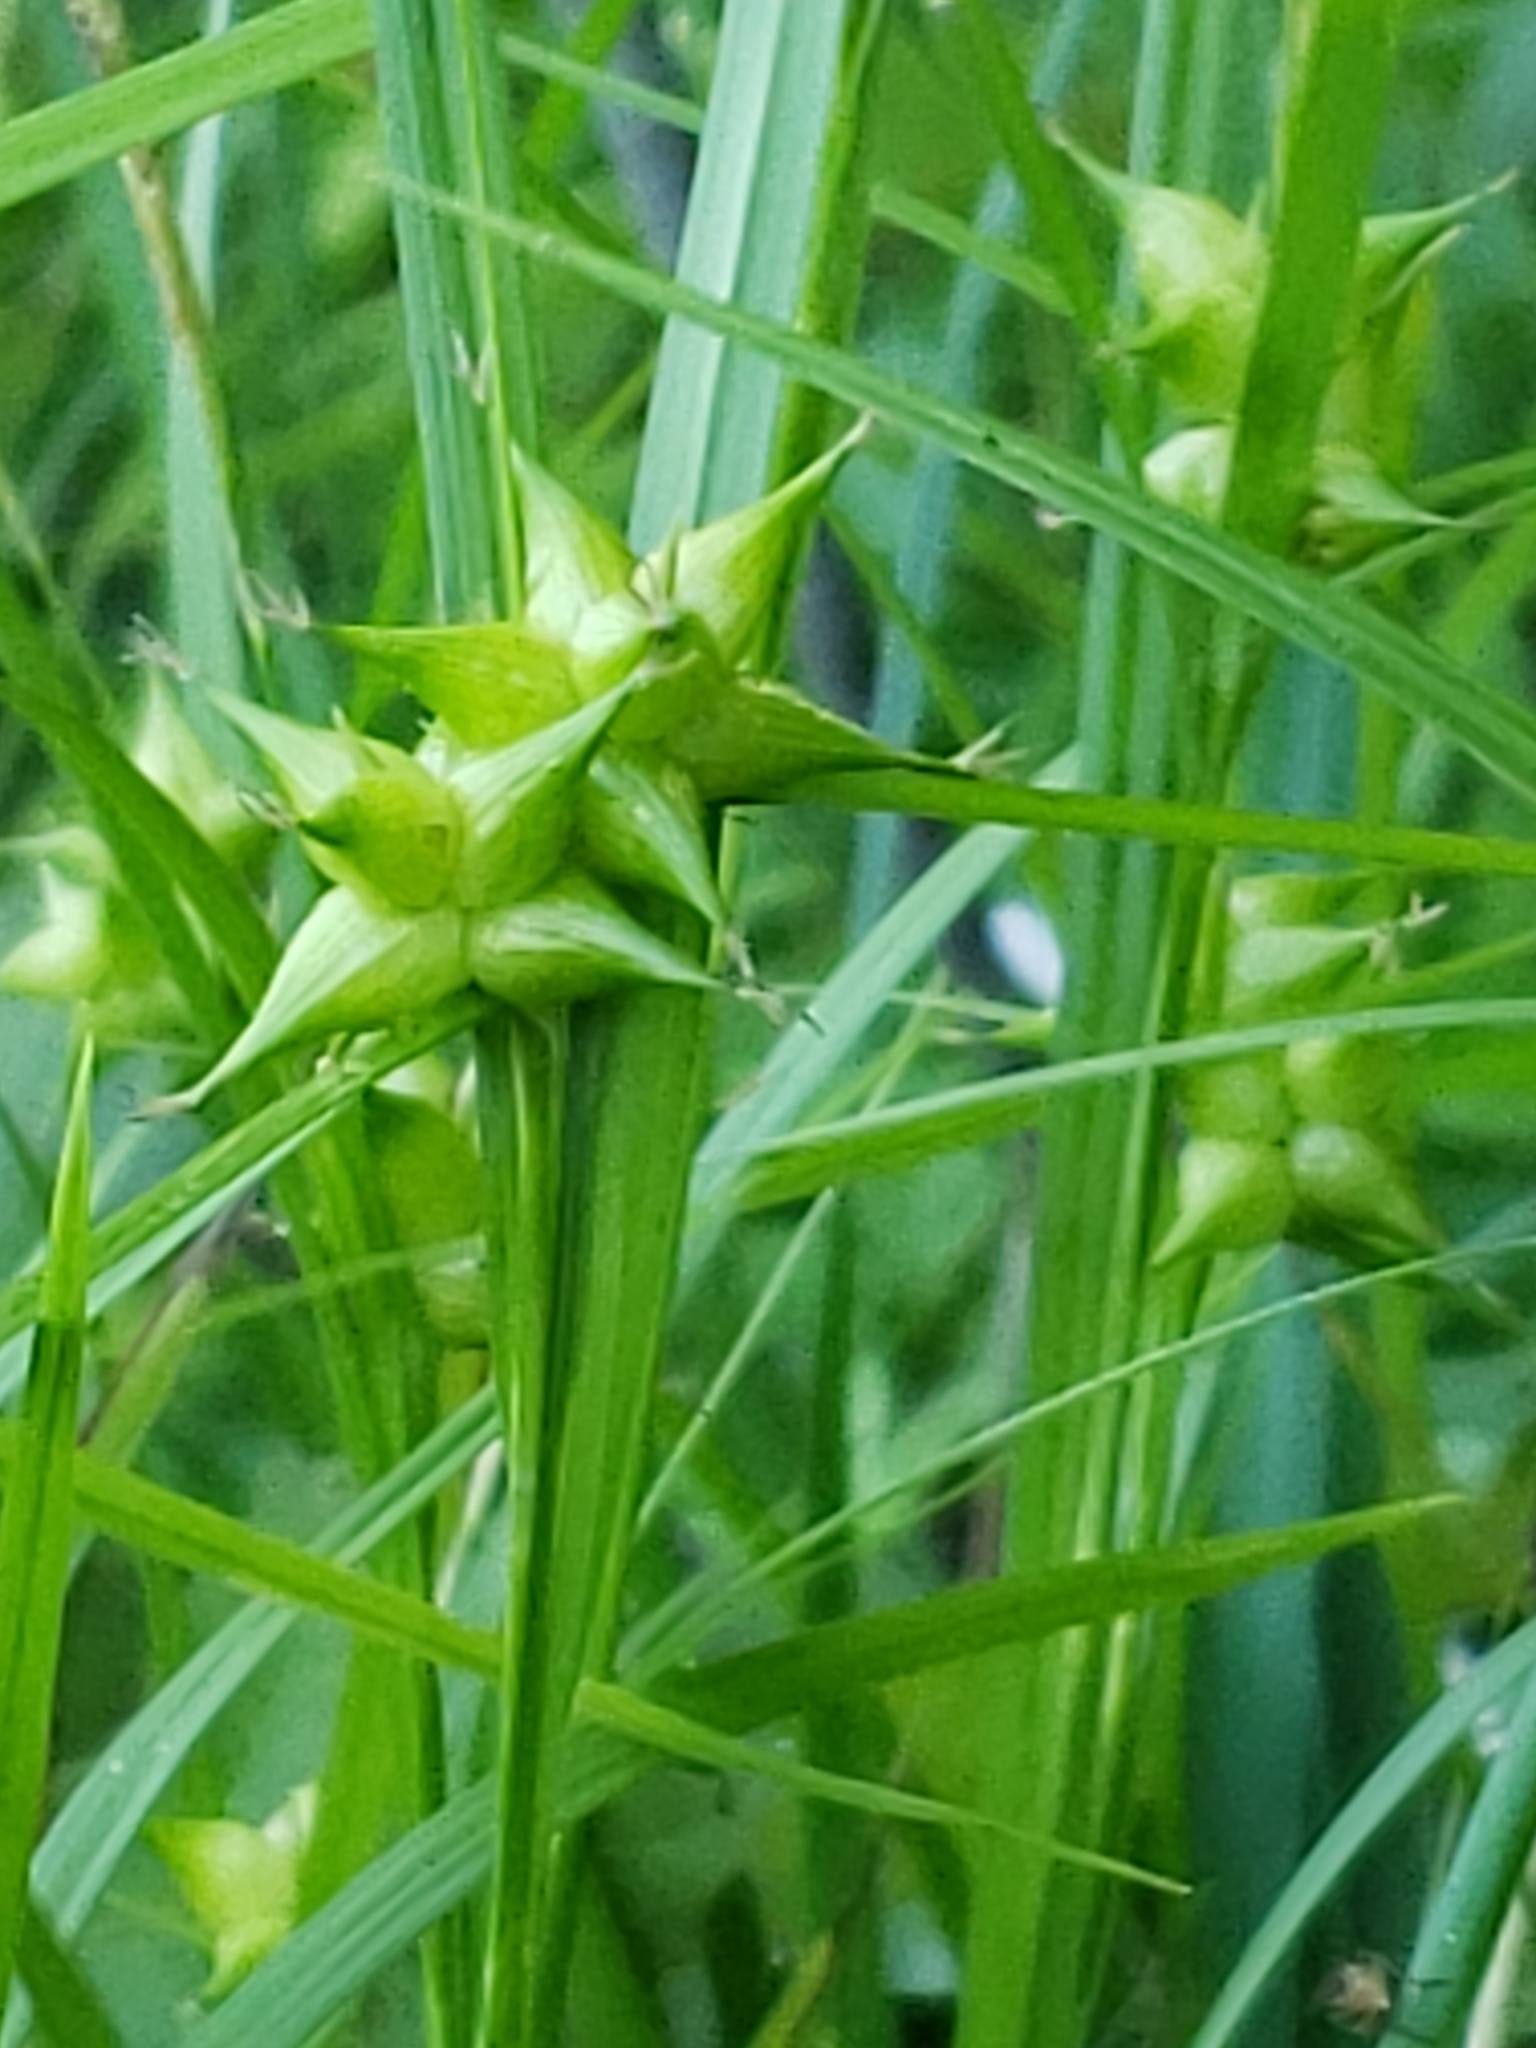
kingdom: Plantae
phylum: Tracheophyta
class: Liliopsida
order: Poales
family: Cyperaceae
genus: Carex
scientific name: Carex intumescens
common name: Greater bladder sedge
